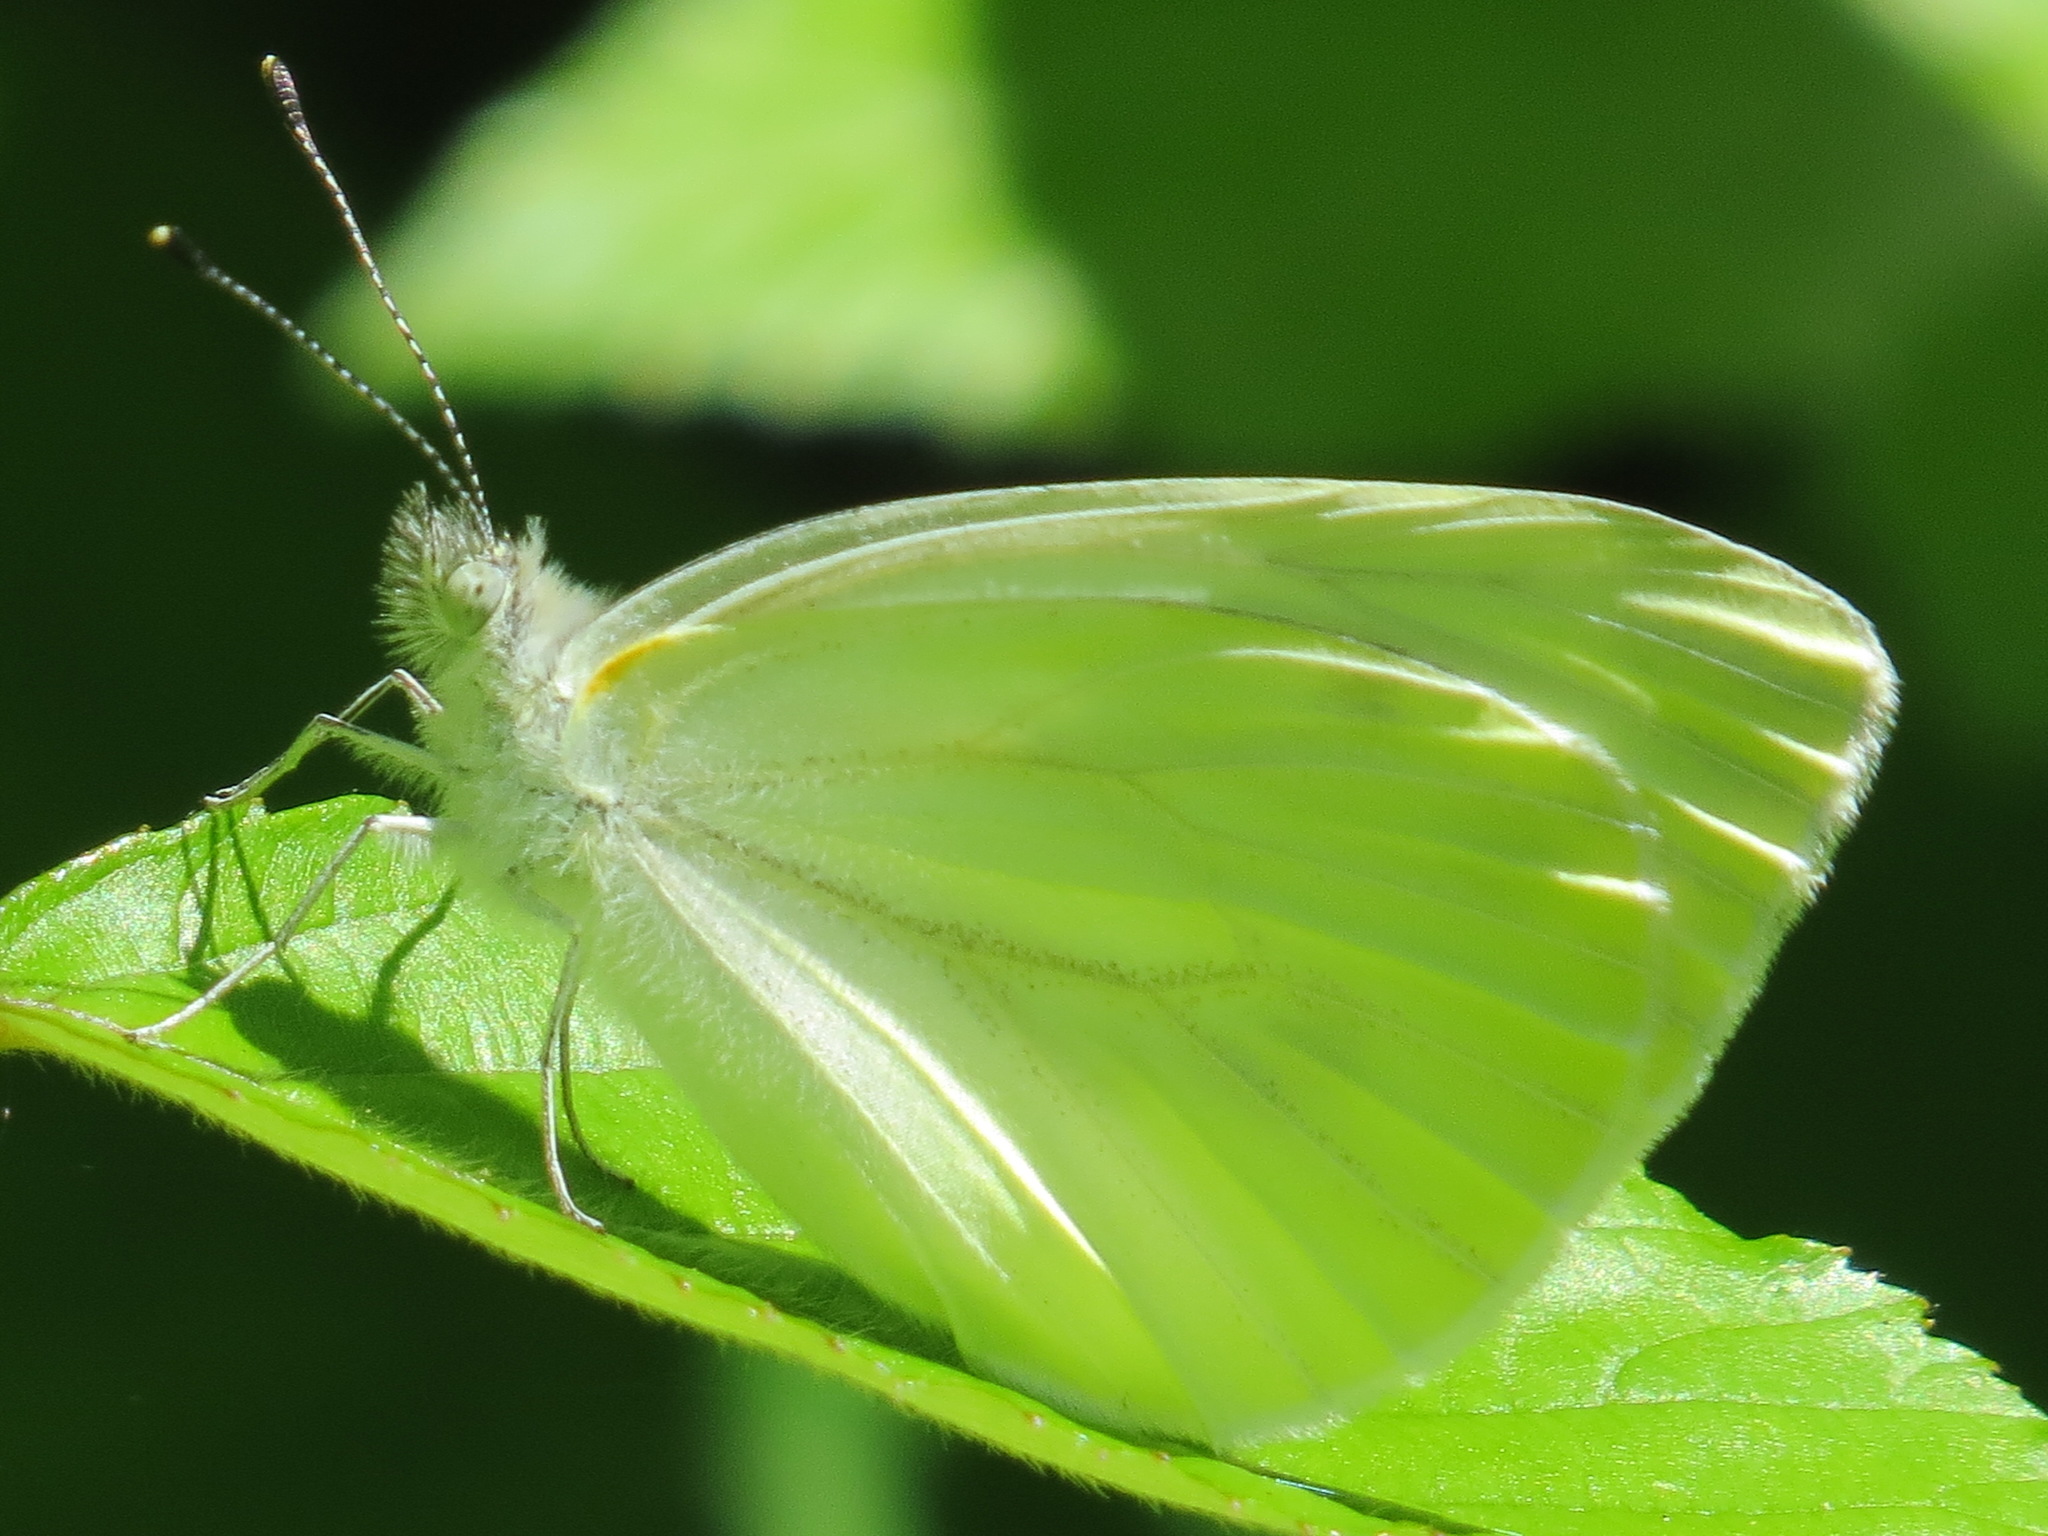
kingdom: Animalia
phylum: Arthropoda
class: Insecta
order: Lepidoptera
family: Pieridae
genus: Pieris
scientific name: Pieris marginalis
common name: Margined white
